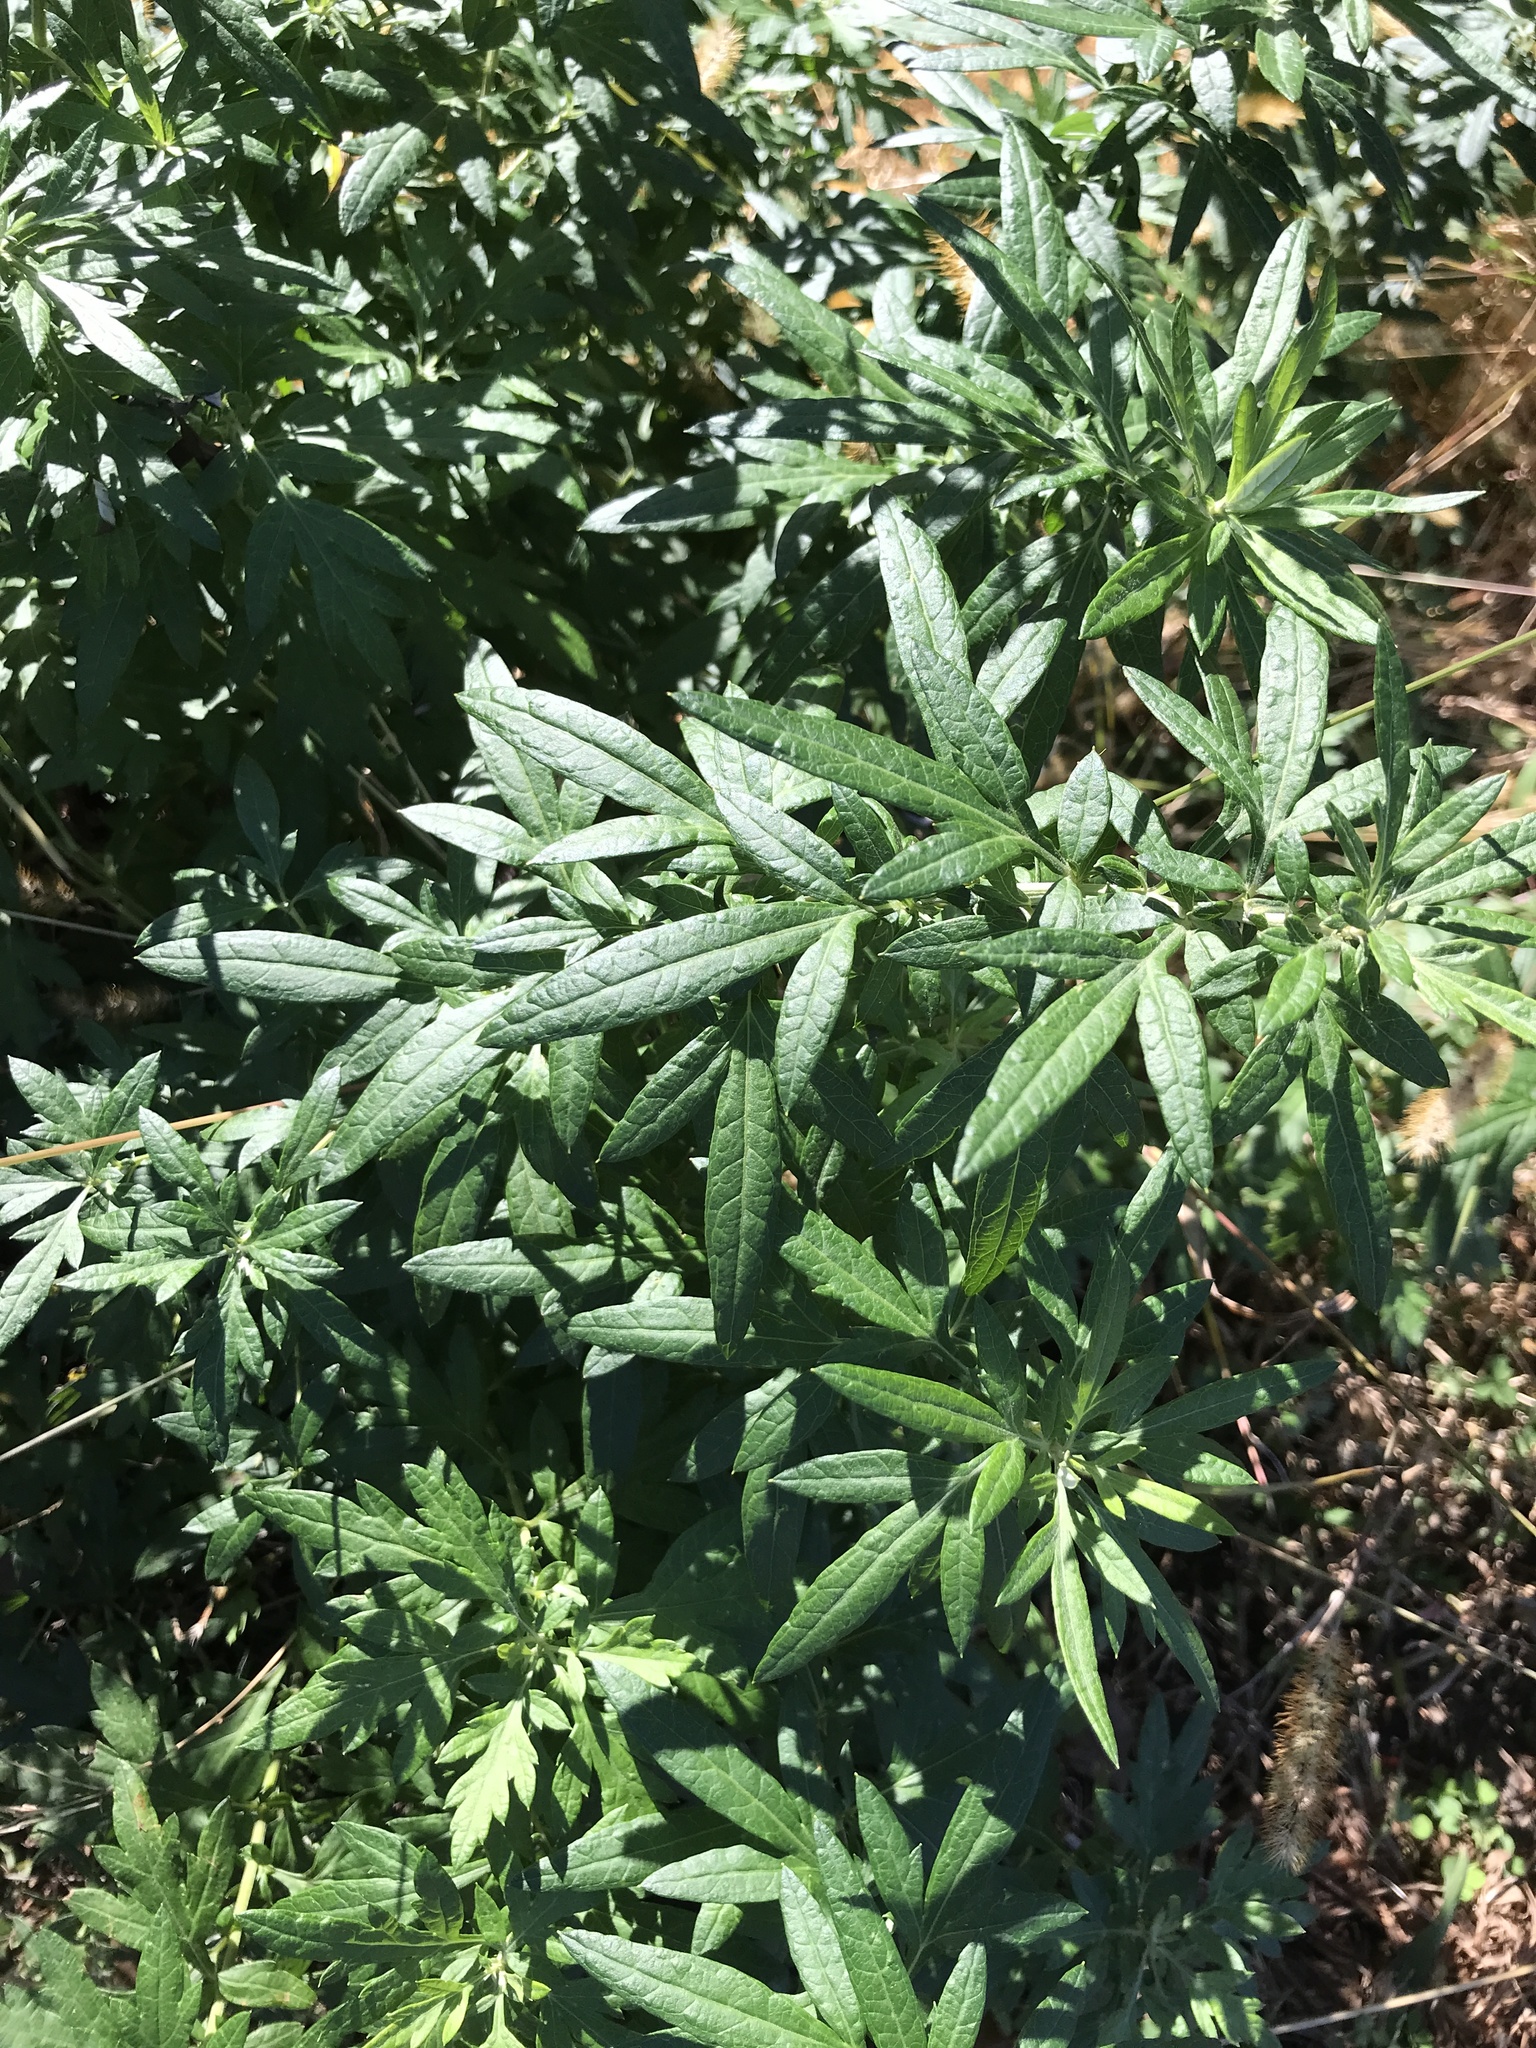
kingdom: Plantae
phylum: Tracheophyta
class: Magnoliopsida
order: Asterales
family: Asteraceae
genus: Artemisia
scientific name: Artemisia vulgaris
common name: Mugwort
